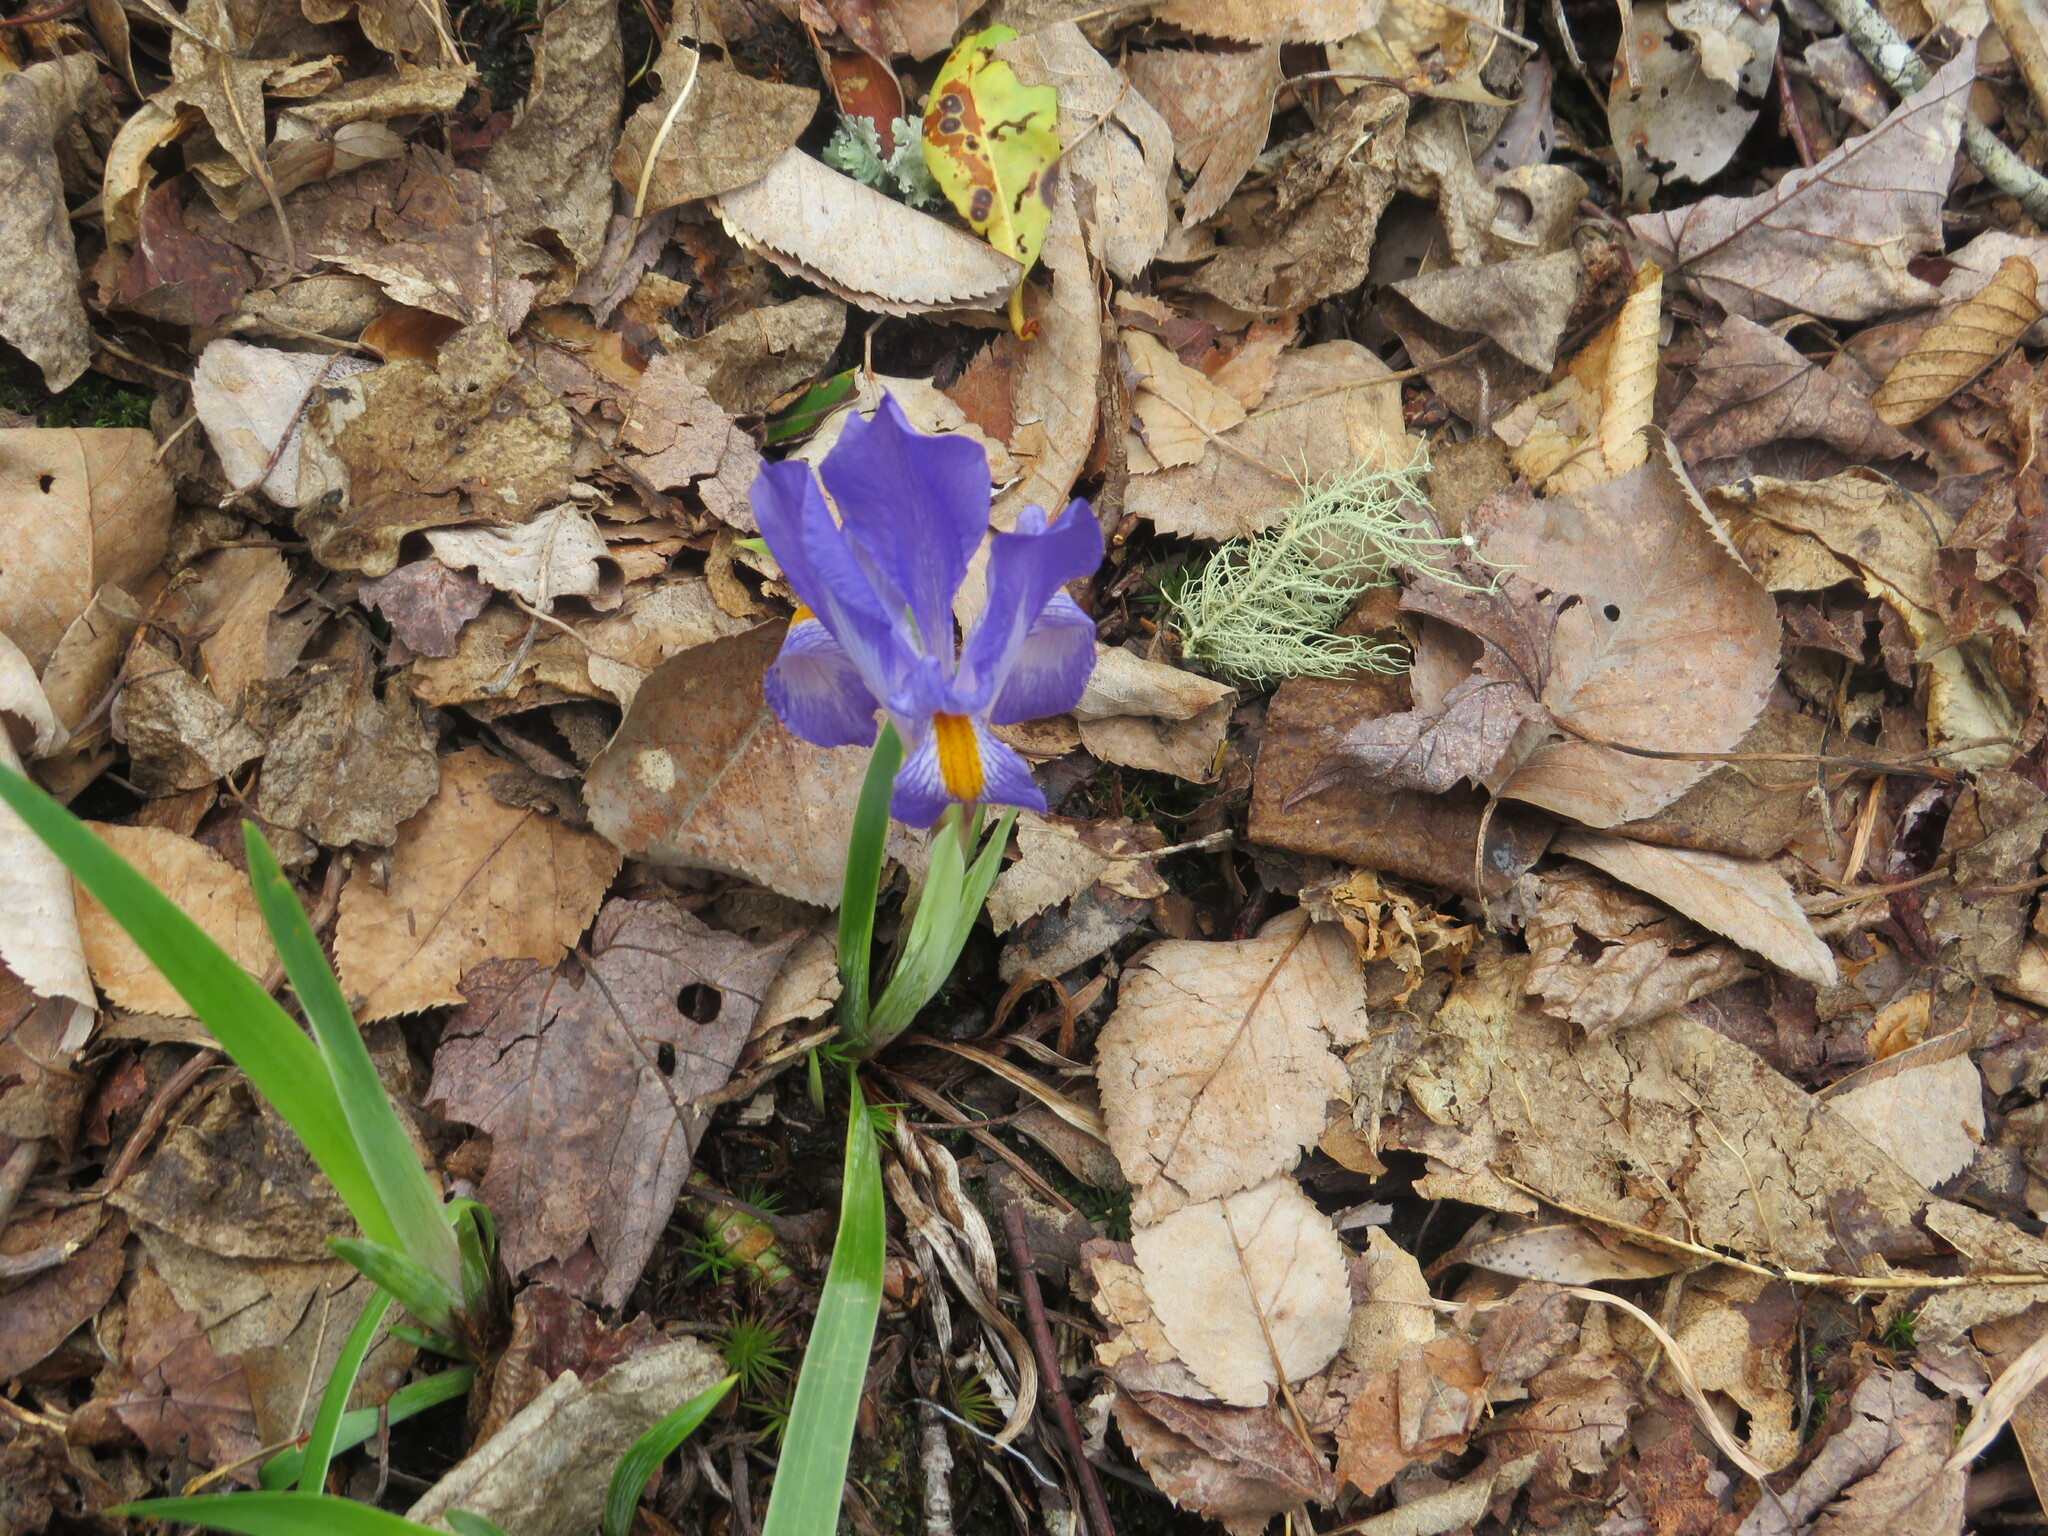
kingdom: Plantae
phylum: Tracheophyta
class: Liliopsida
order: Asparagales
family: Iridaceae
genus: Iris
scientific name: Iris verna
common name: Dwarf iris
